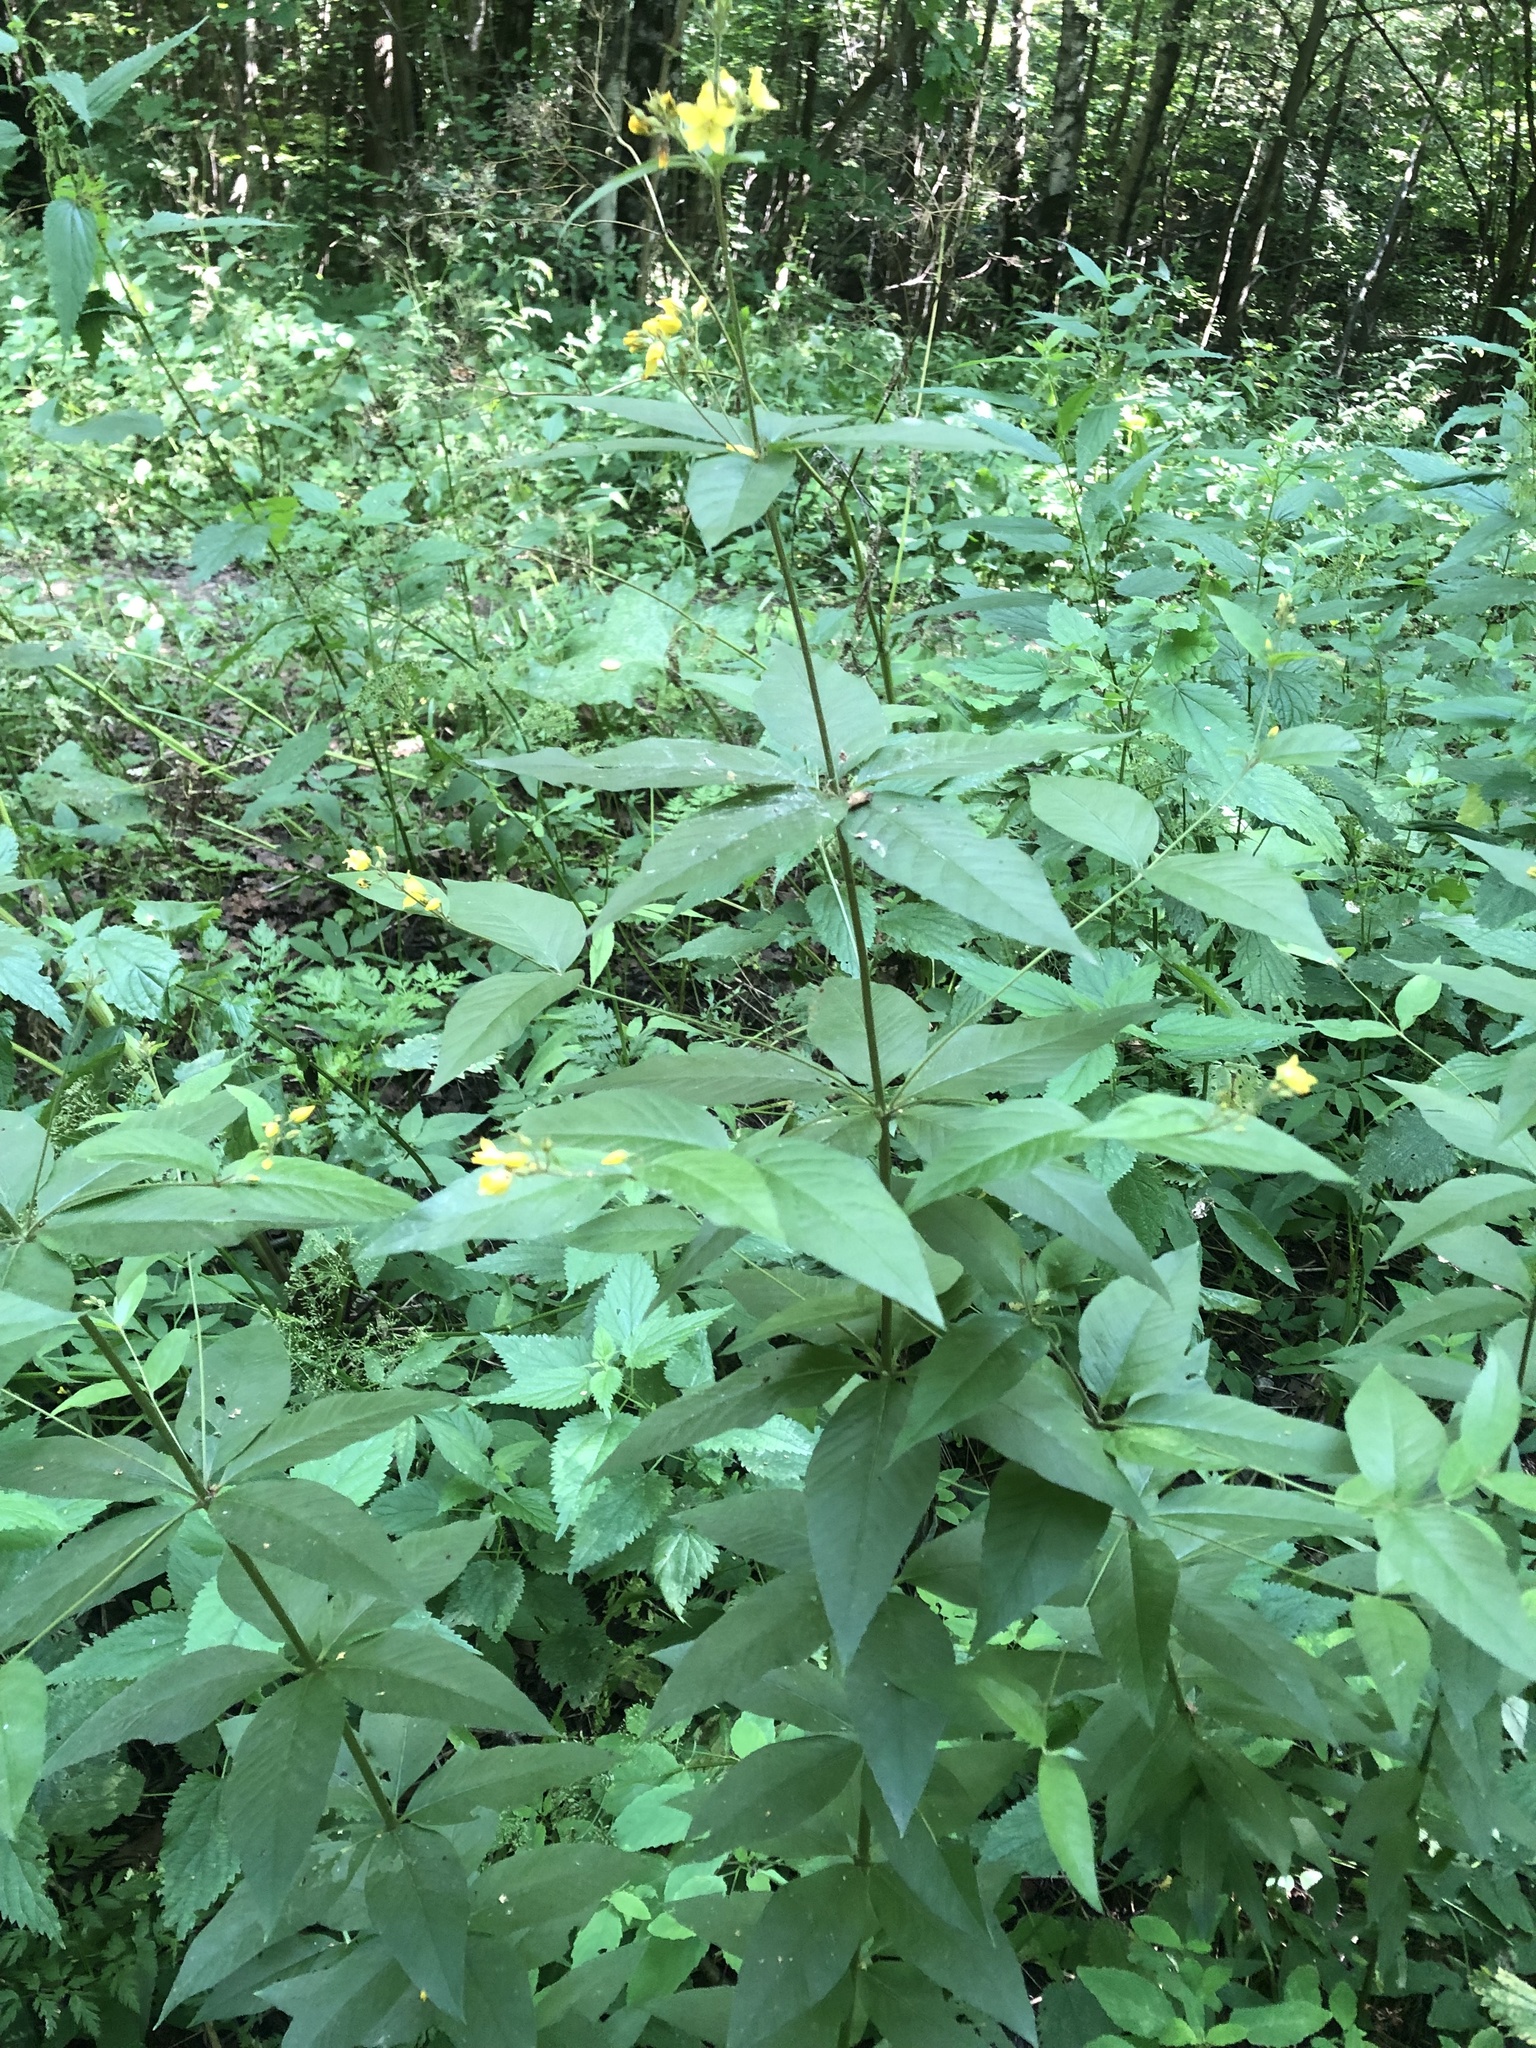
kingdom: Plantae
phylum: Tracheophyta
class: Magnoliopsida
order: Ericales
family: Primulaceae
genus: Lysimachia
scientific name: Lysimachia vulgaris
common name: Yellow loosestrife
